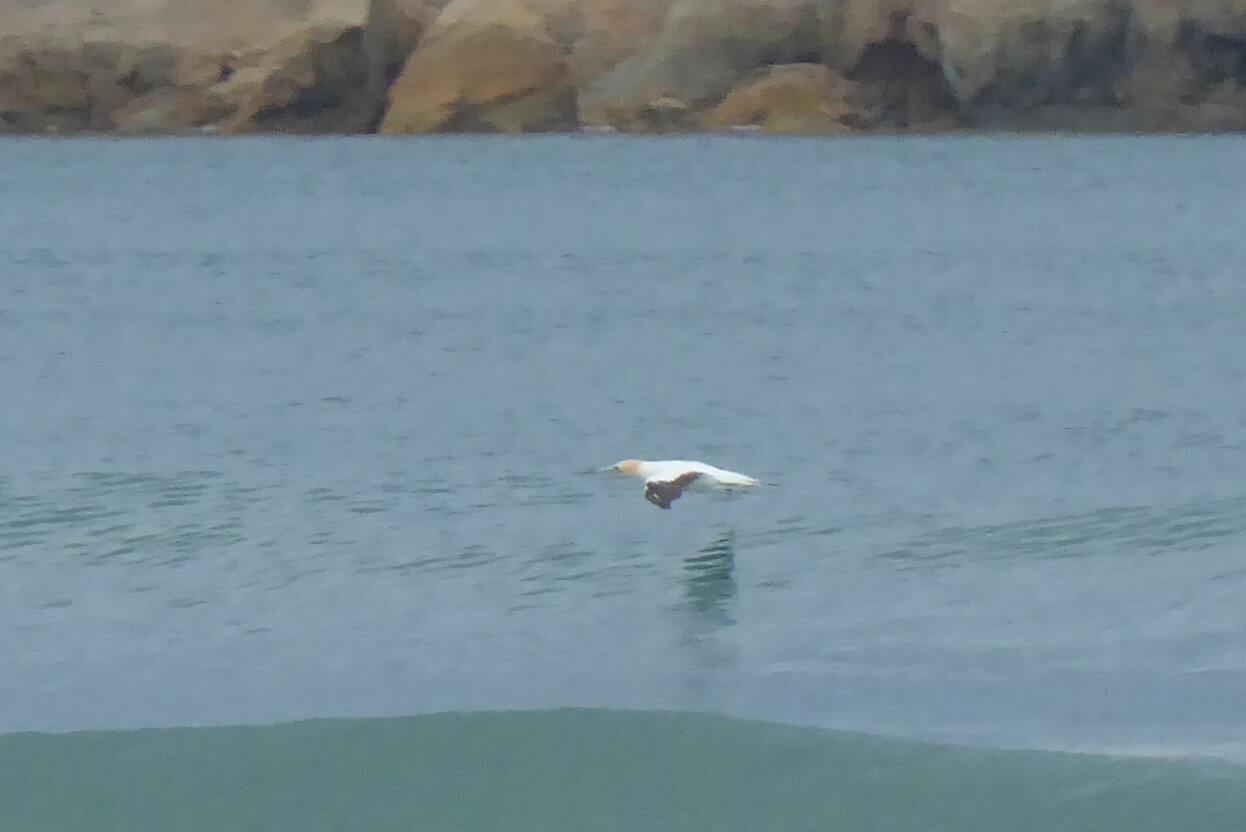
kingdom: Animalia
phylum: Chordata
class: Aves
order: Suliformes
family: Sulidae
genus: Morus
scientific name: Morus serrator
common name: Australasian gannet
